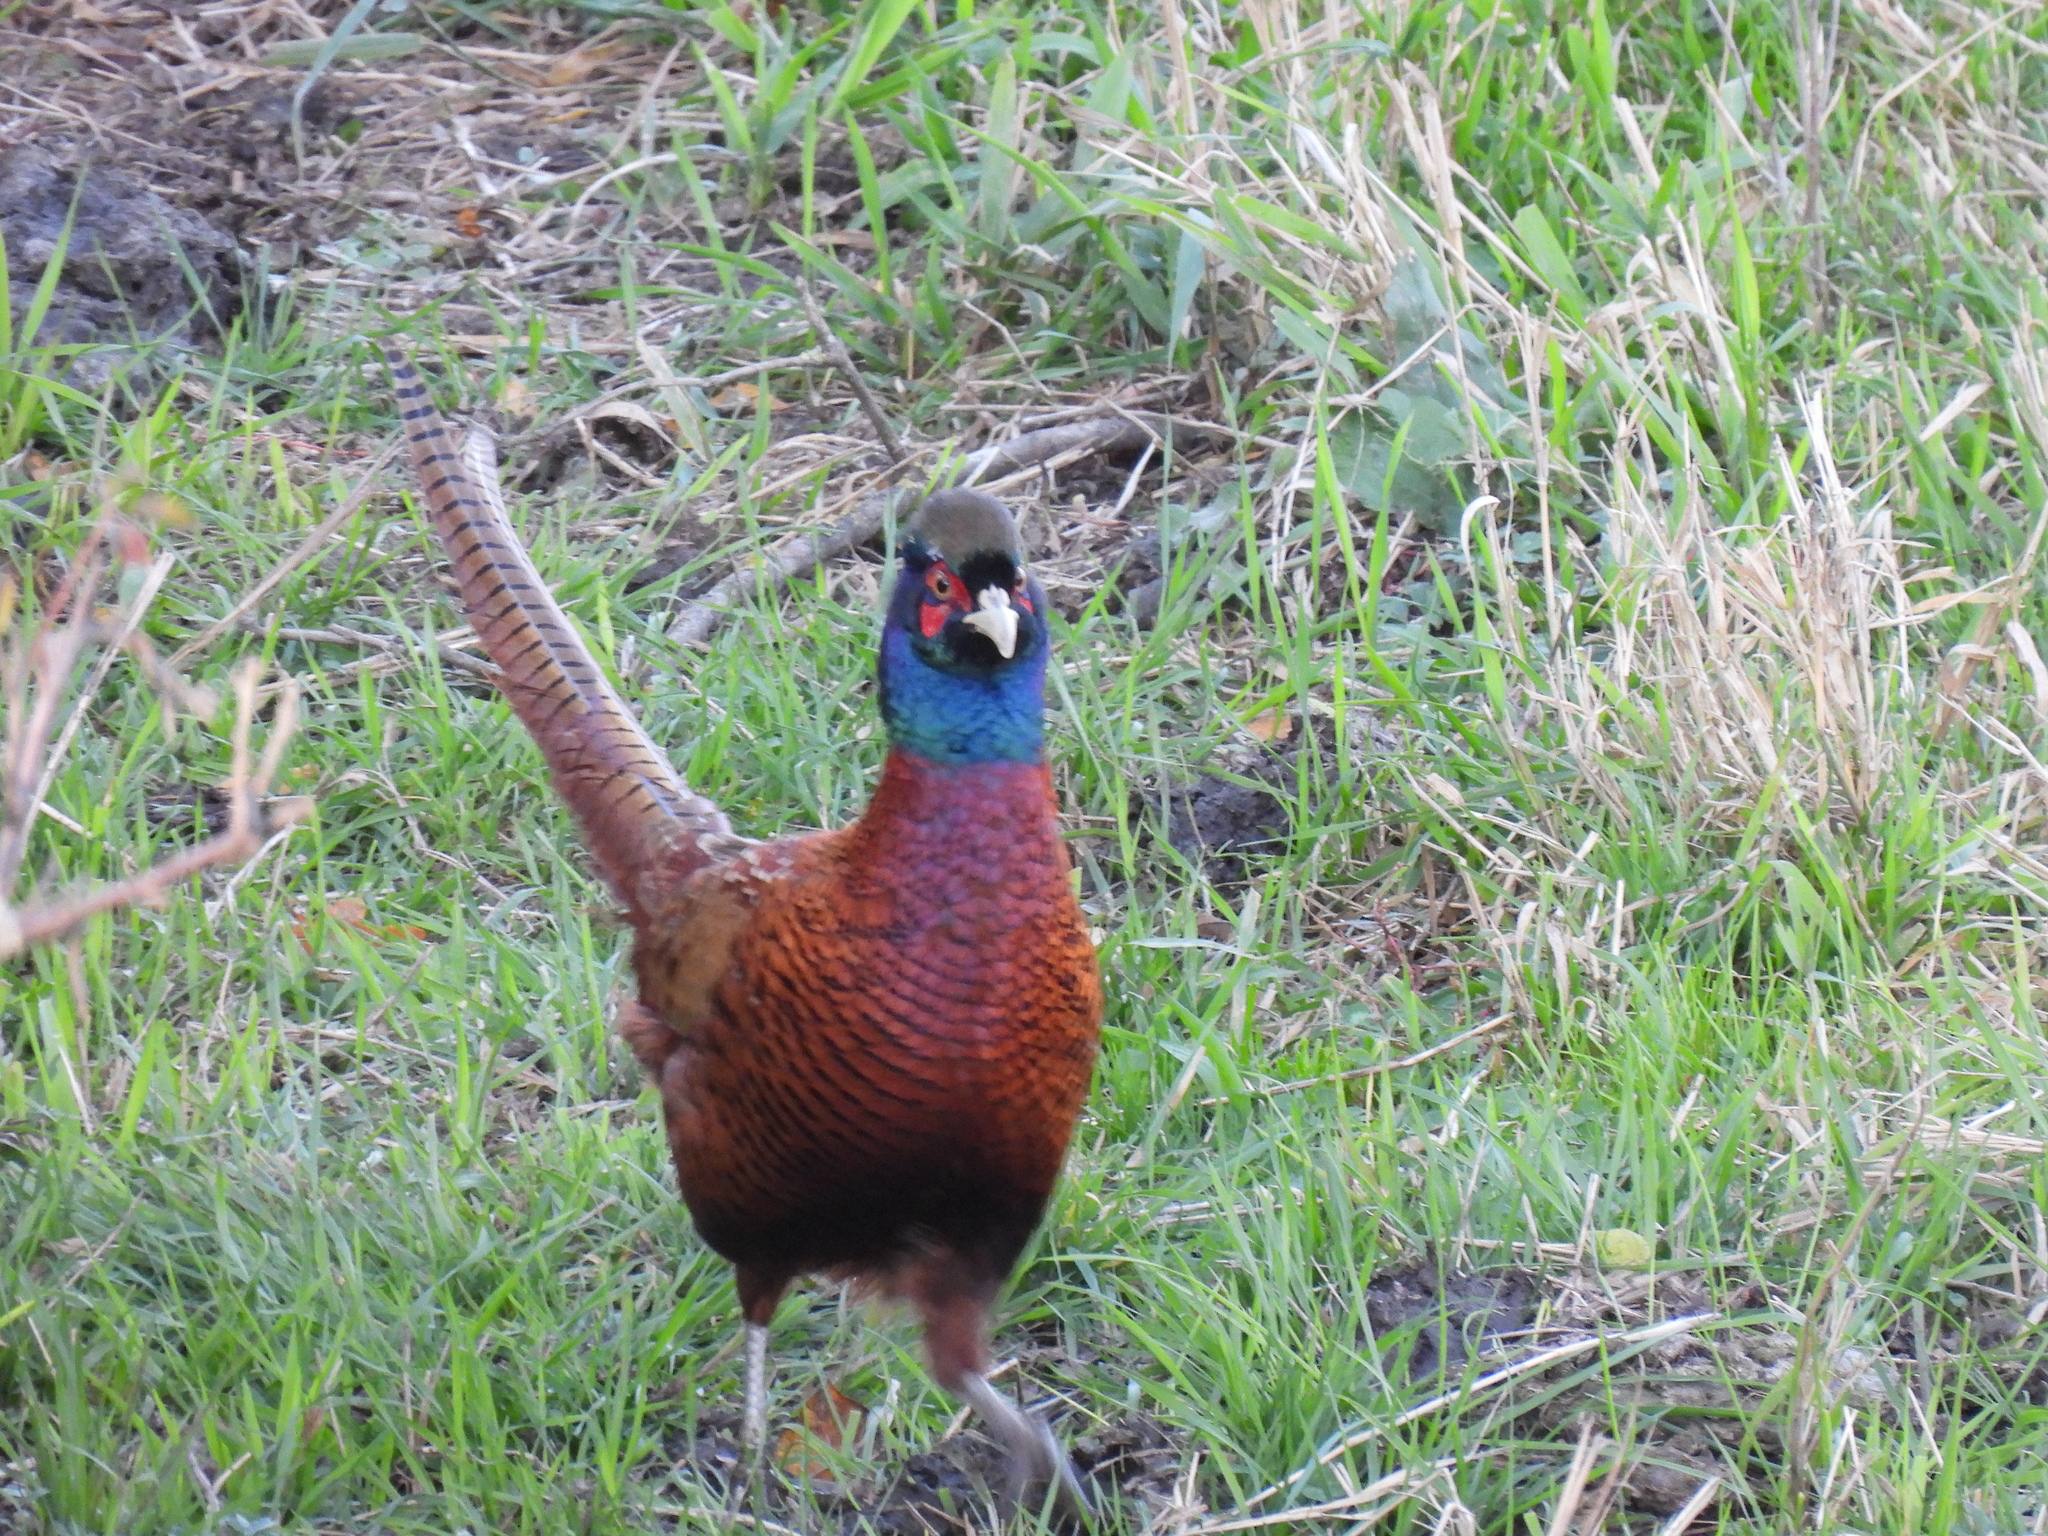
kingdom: Animalia
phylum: Chordata
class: Aves
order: Galliformes
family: Phasianidae
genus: Phasianus
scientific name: Phasianus colchicus
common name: Common pheasant
